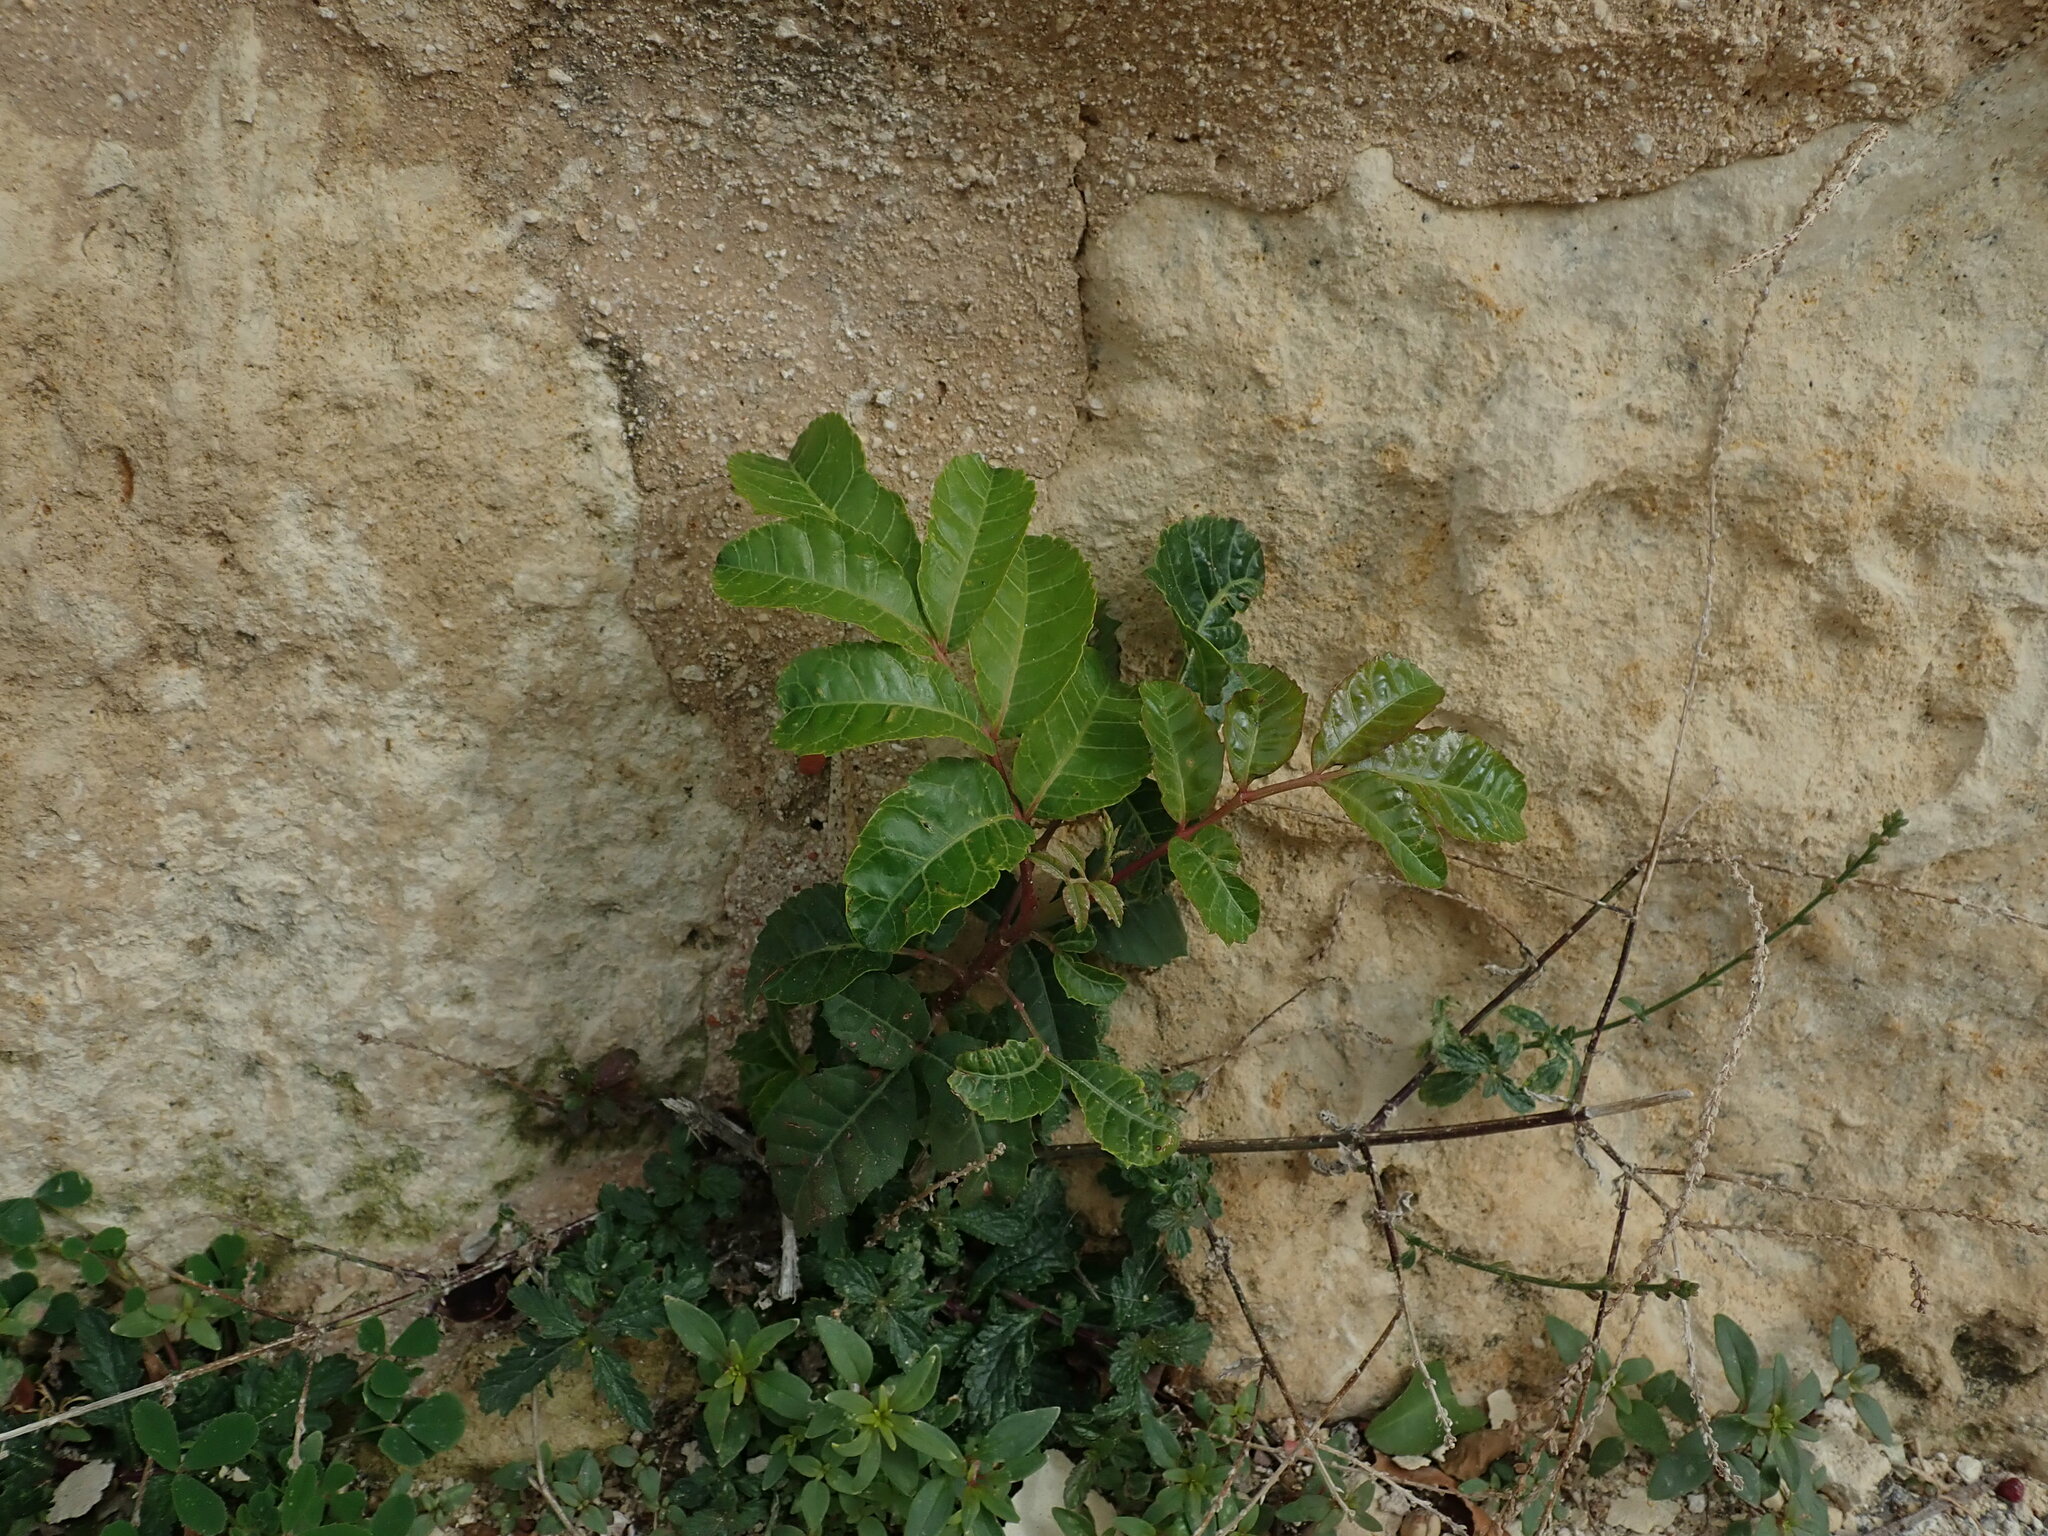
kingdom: Plantae
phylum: Tracheophyta
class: Magnoliopsida
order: Sapindales
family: Anacardiaceae
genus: Pistacia
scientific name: Pistacia terebinthus
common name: Terebinth
